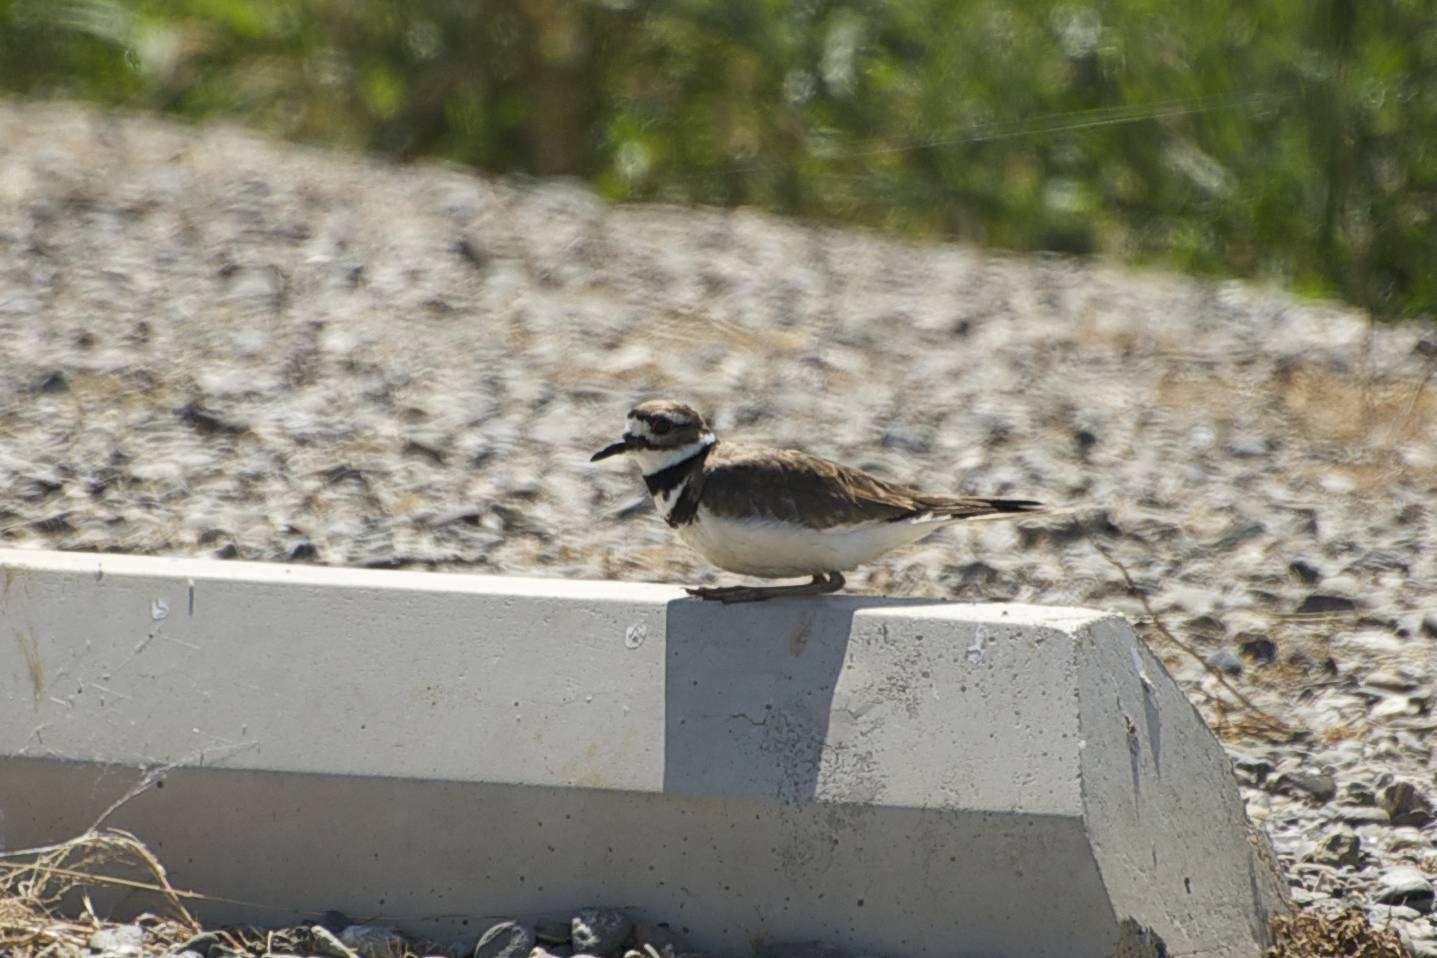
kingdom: Animalia
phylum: Chordata
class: Aves
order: Charadriiformes
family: Charadriidae
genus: Charadrius
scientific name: Charadrius vociferus
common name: Killdeer
